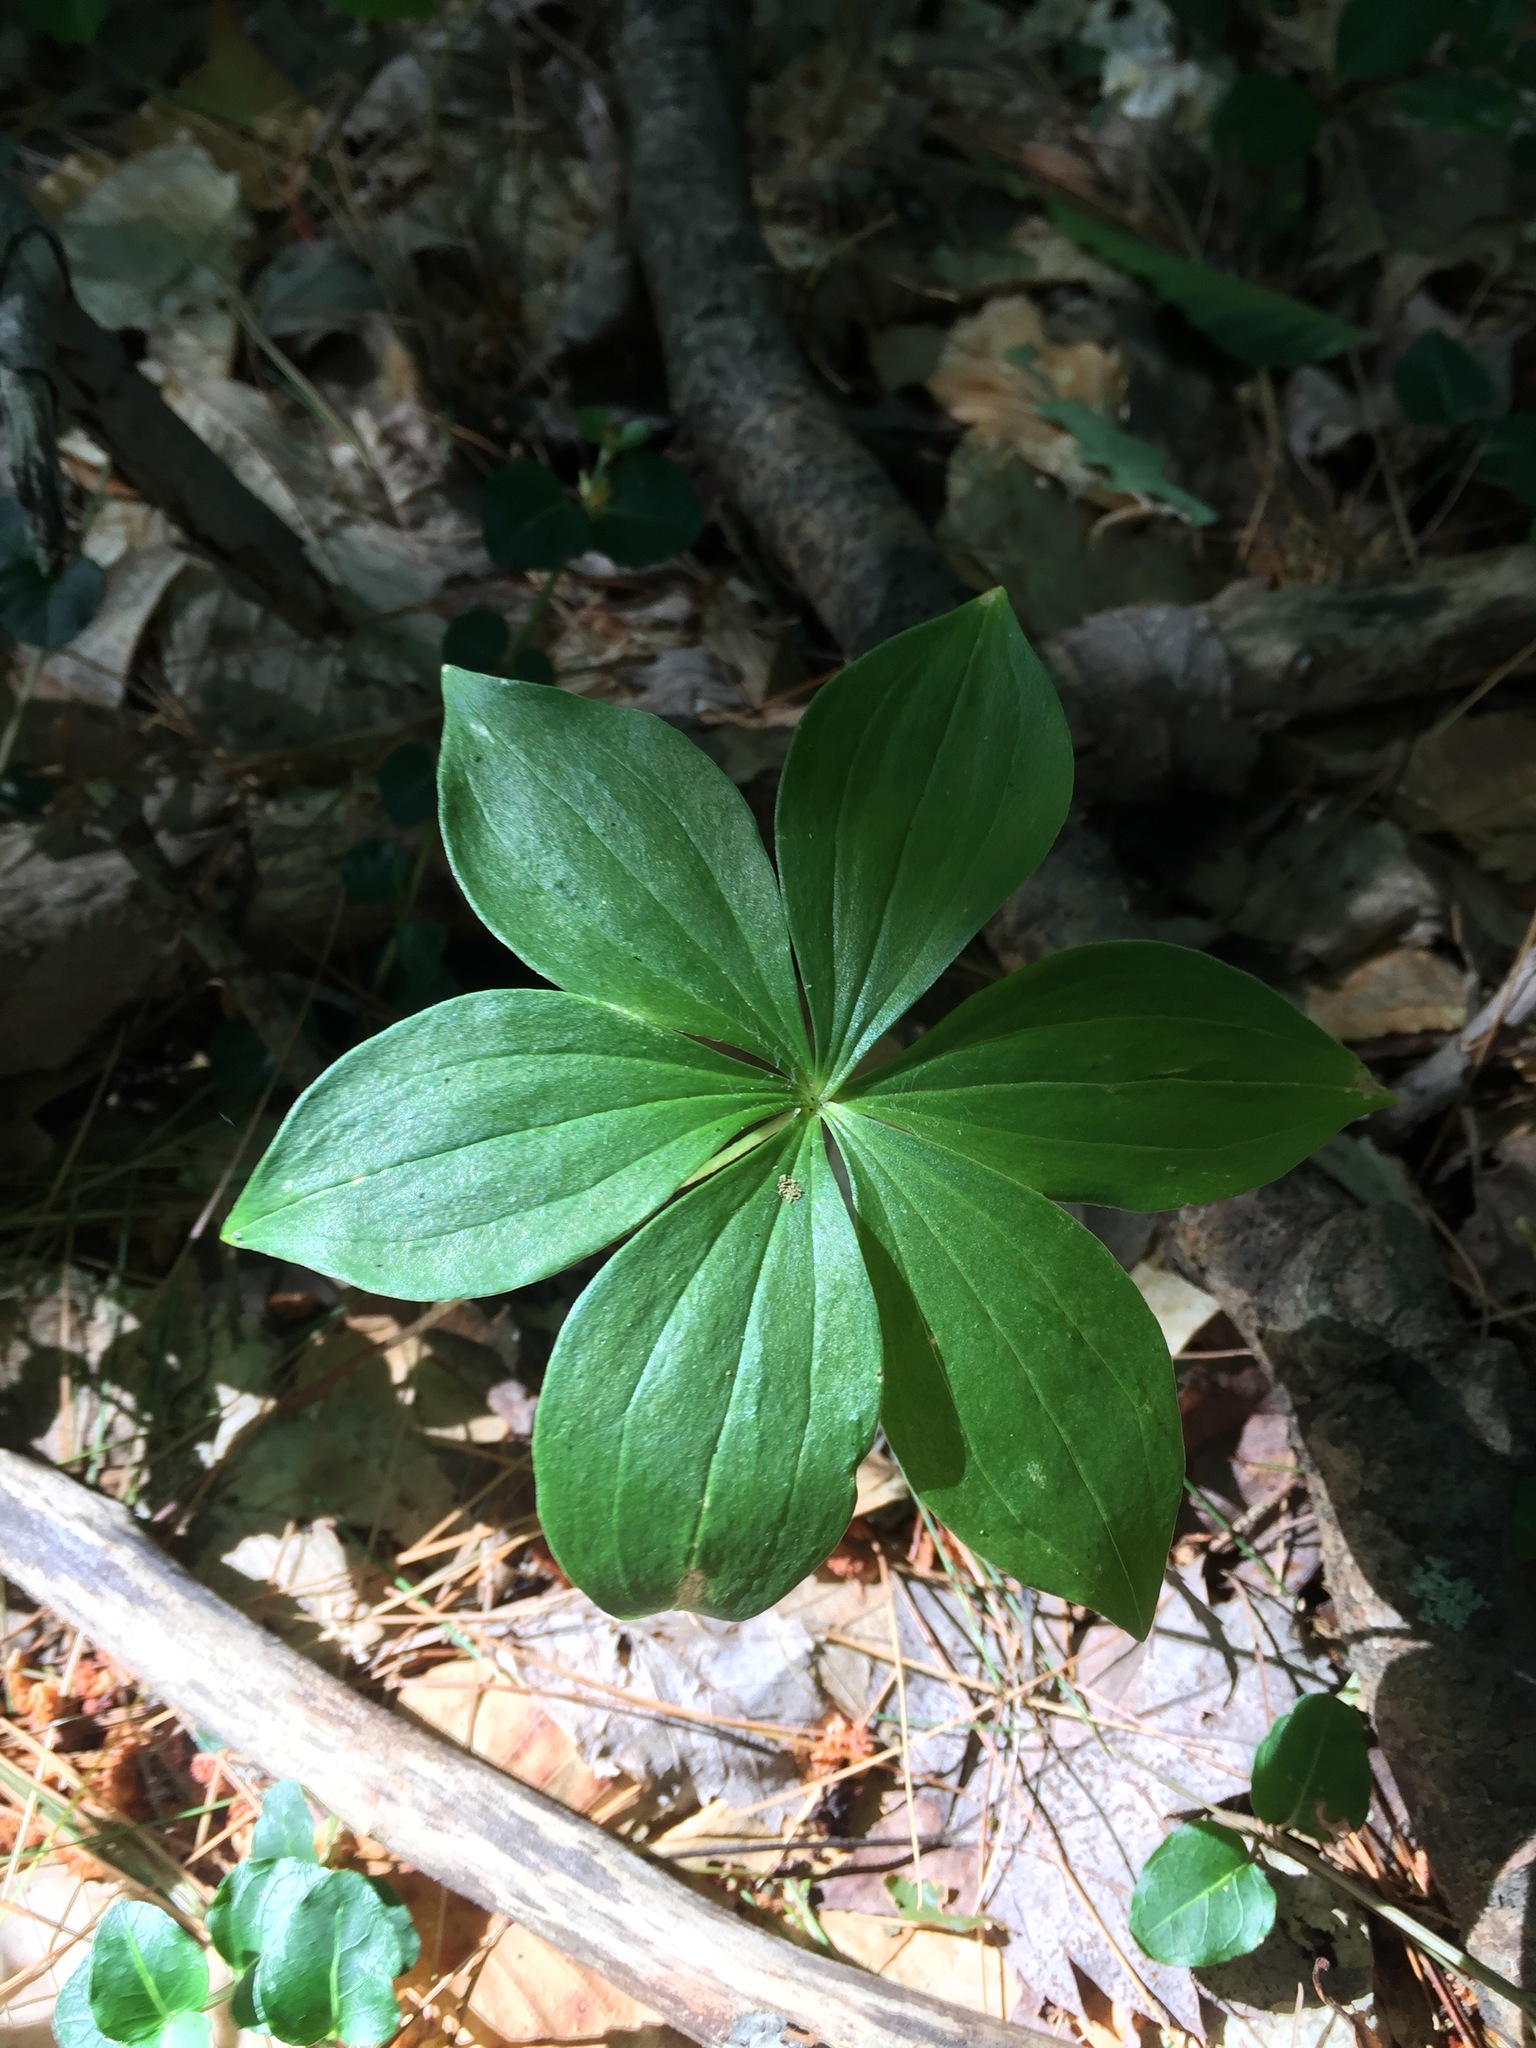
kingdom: Plantae
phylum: Tracheophyta
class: Liliopsida
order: Liliales
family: Liliaceae
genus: Medeola
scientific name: Medeola virginiana
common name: Indian cucumber-root
